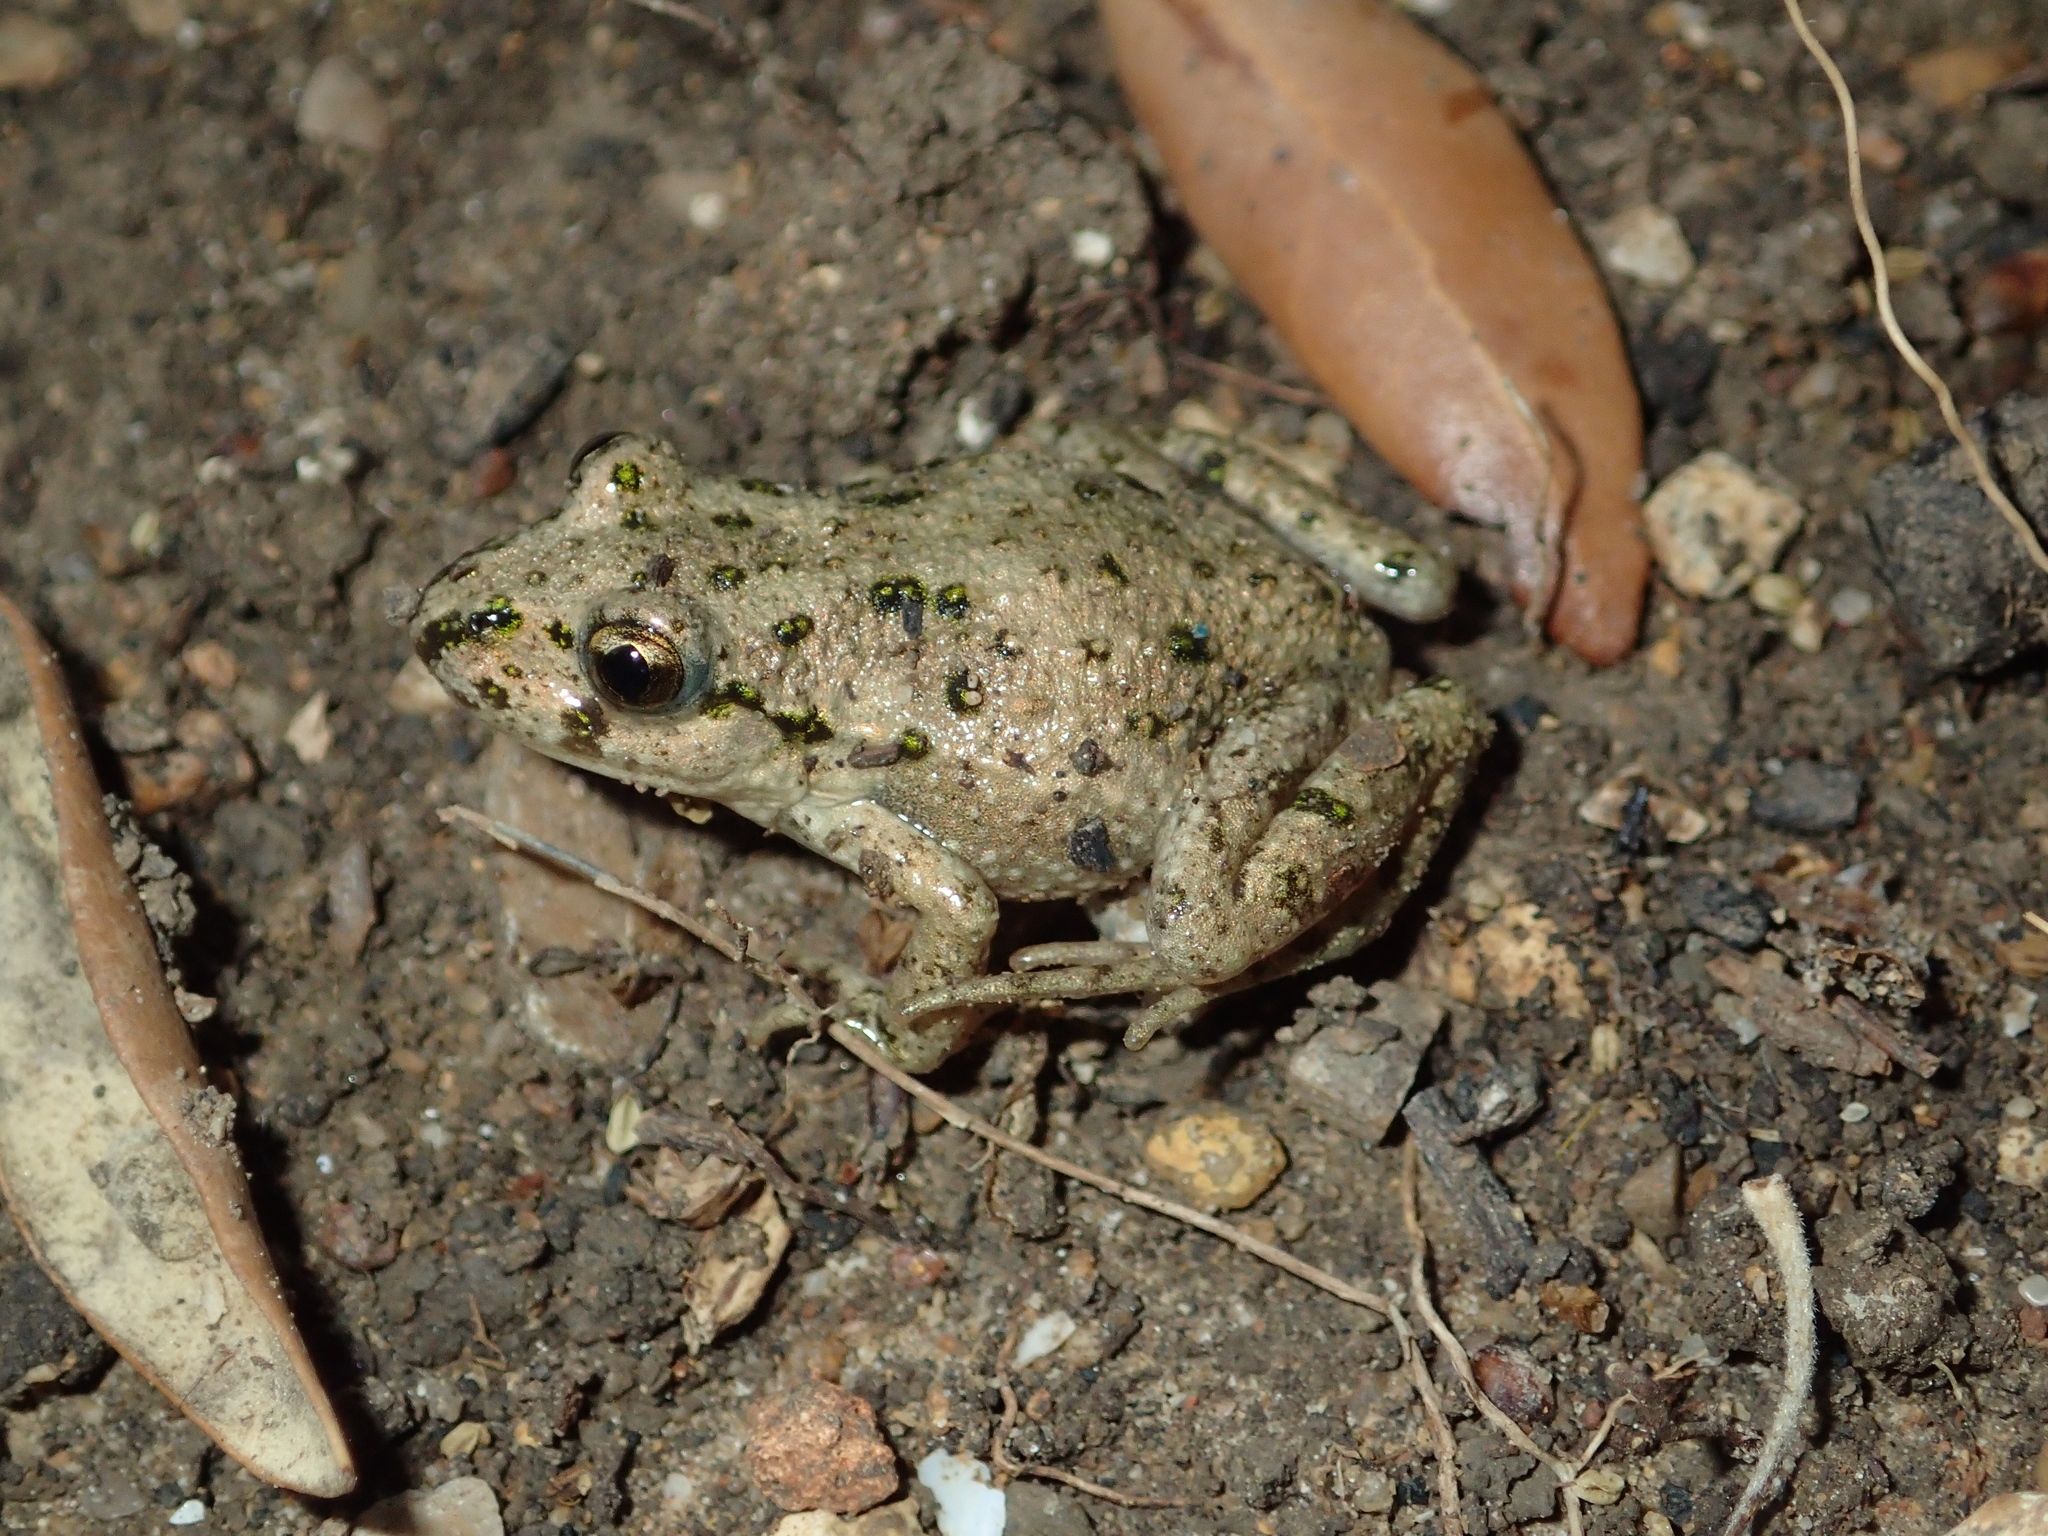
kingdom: Animalia
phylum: Chordata
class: Amphibia
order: Anura
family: Pelodytidae
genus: Pelodytes
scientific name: Pelodytes punctatus
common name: Parsley frog
